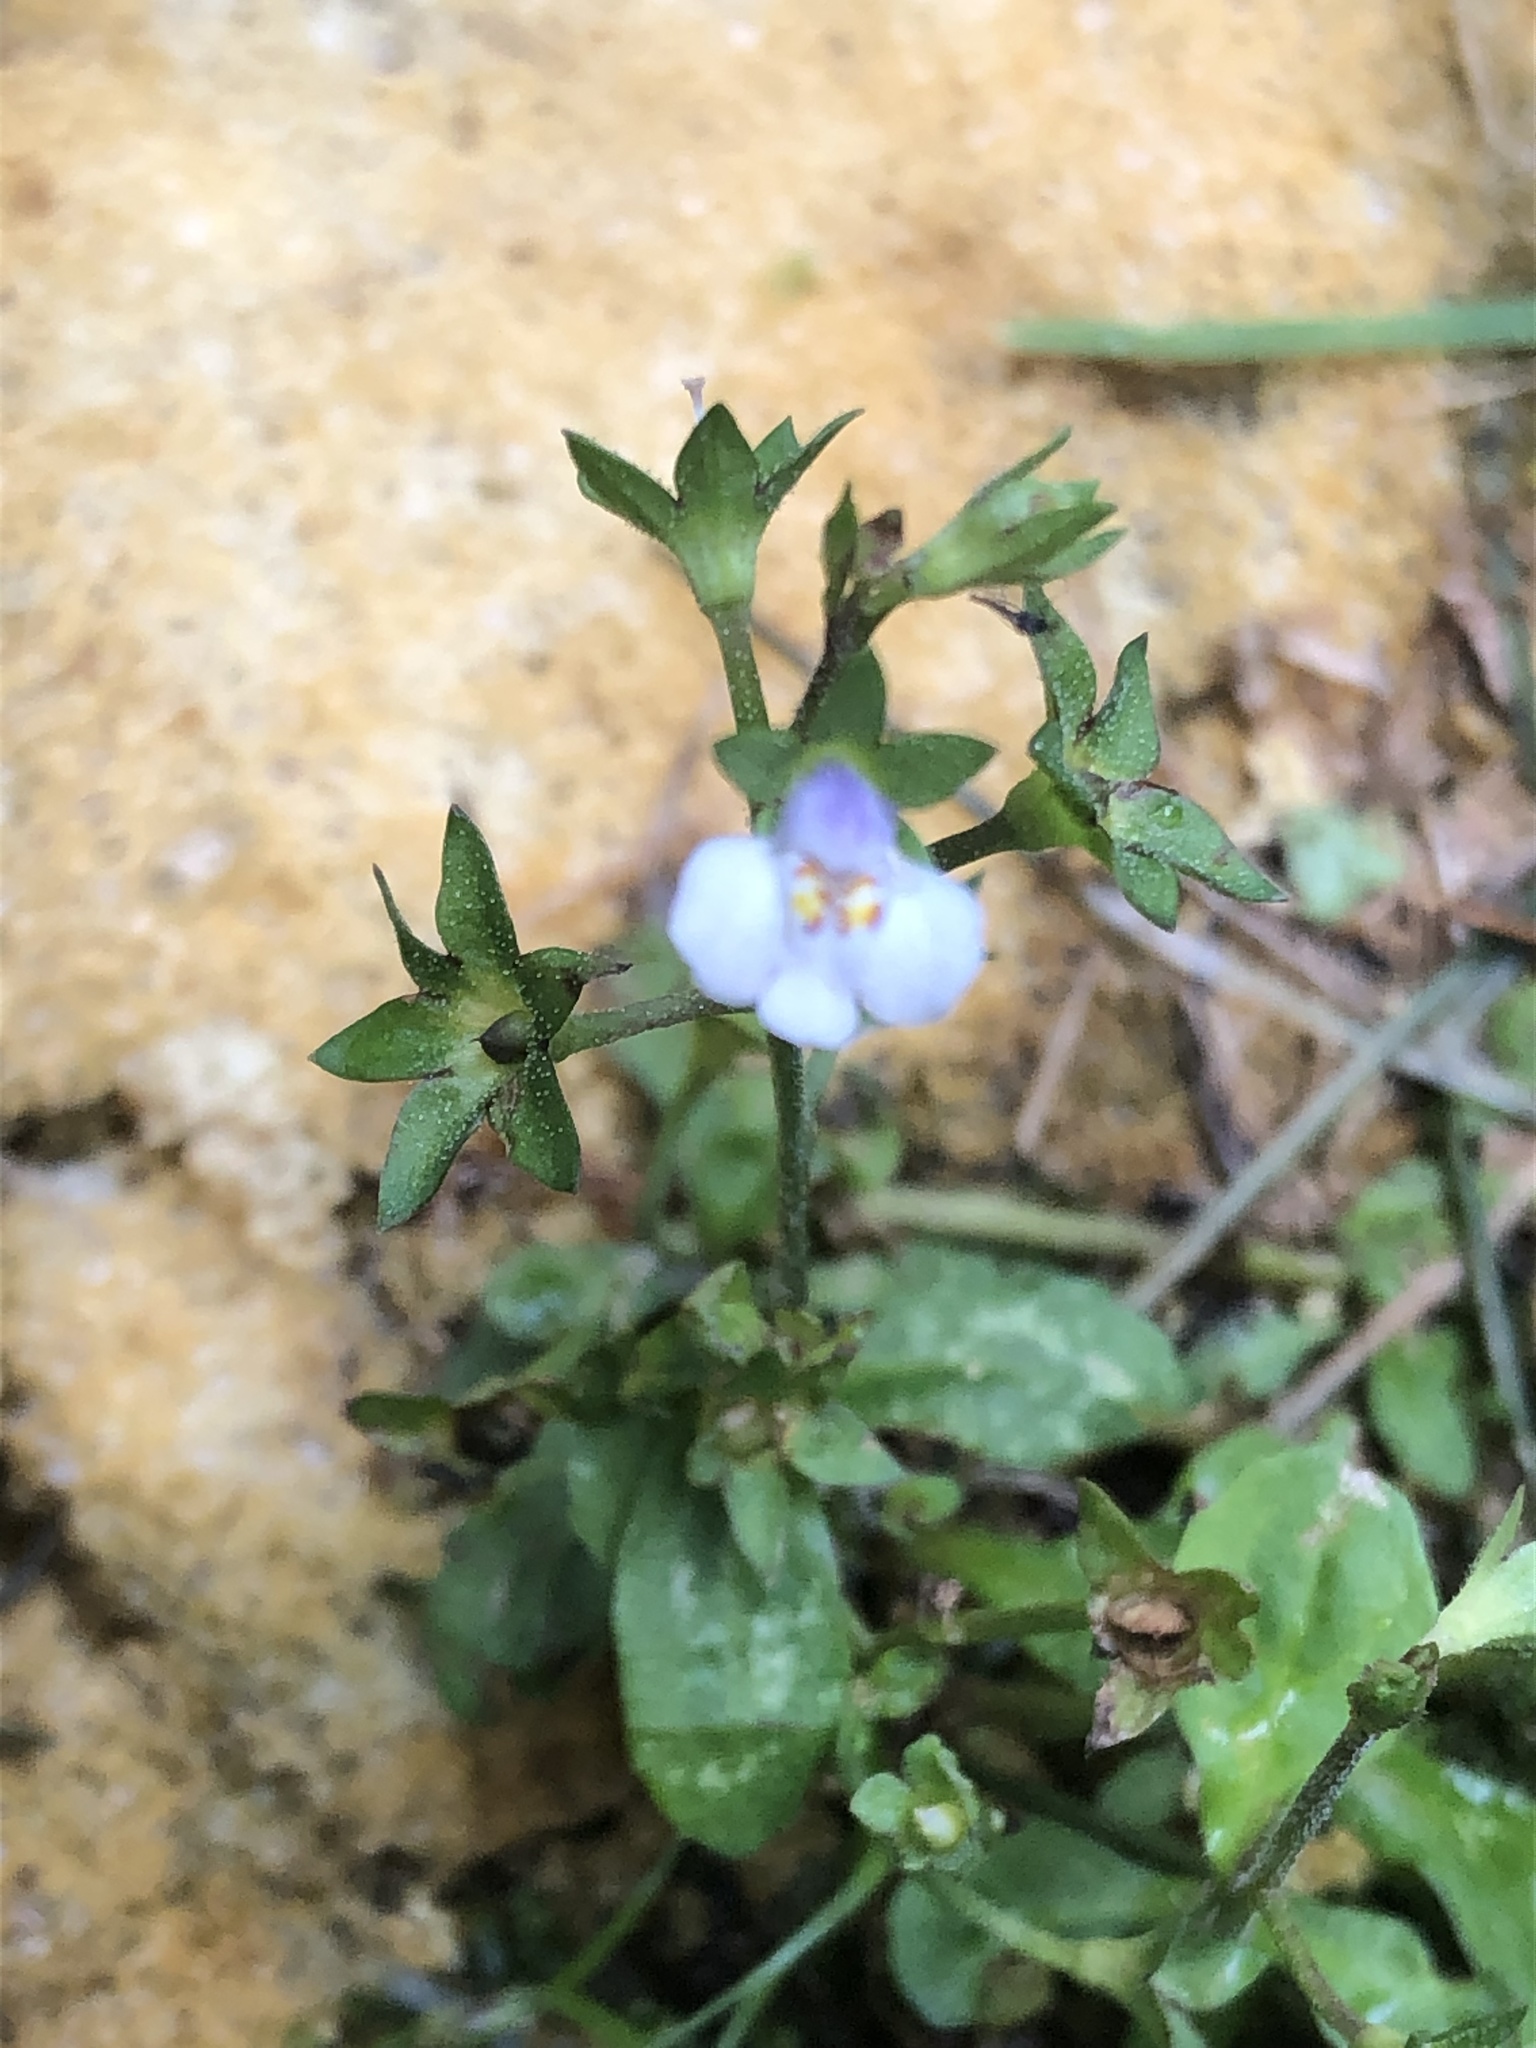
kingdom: Plantae
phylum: Tracheophyta
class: Magnoliopsida
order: Lamiales
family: Mazaceae
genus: Mazus
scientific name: Mazus pumilus
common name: Japanese mazus
